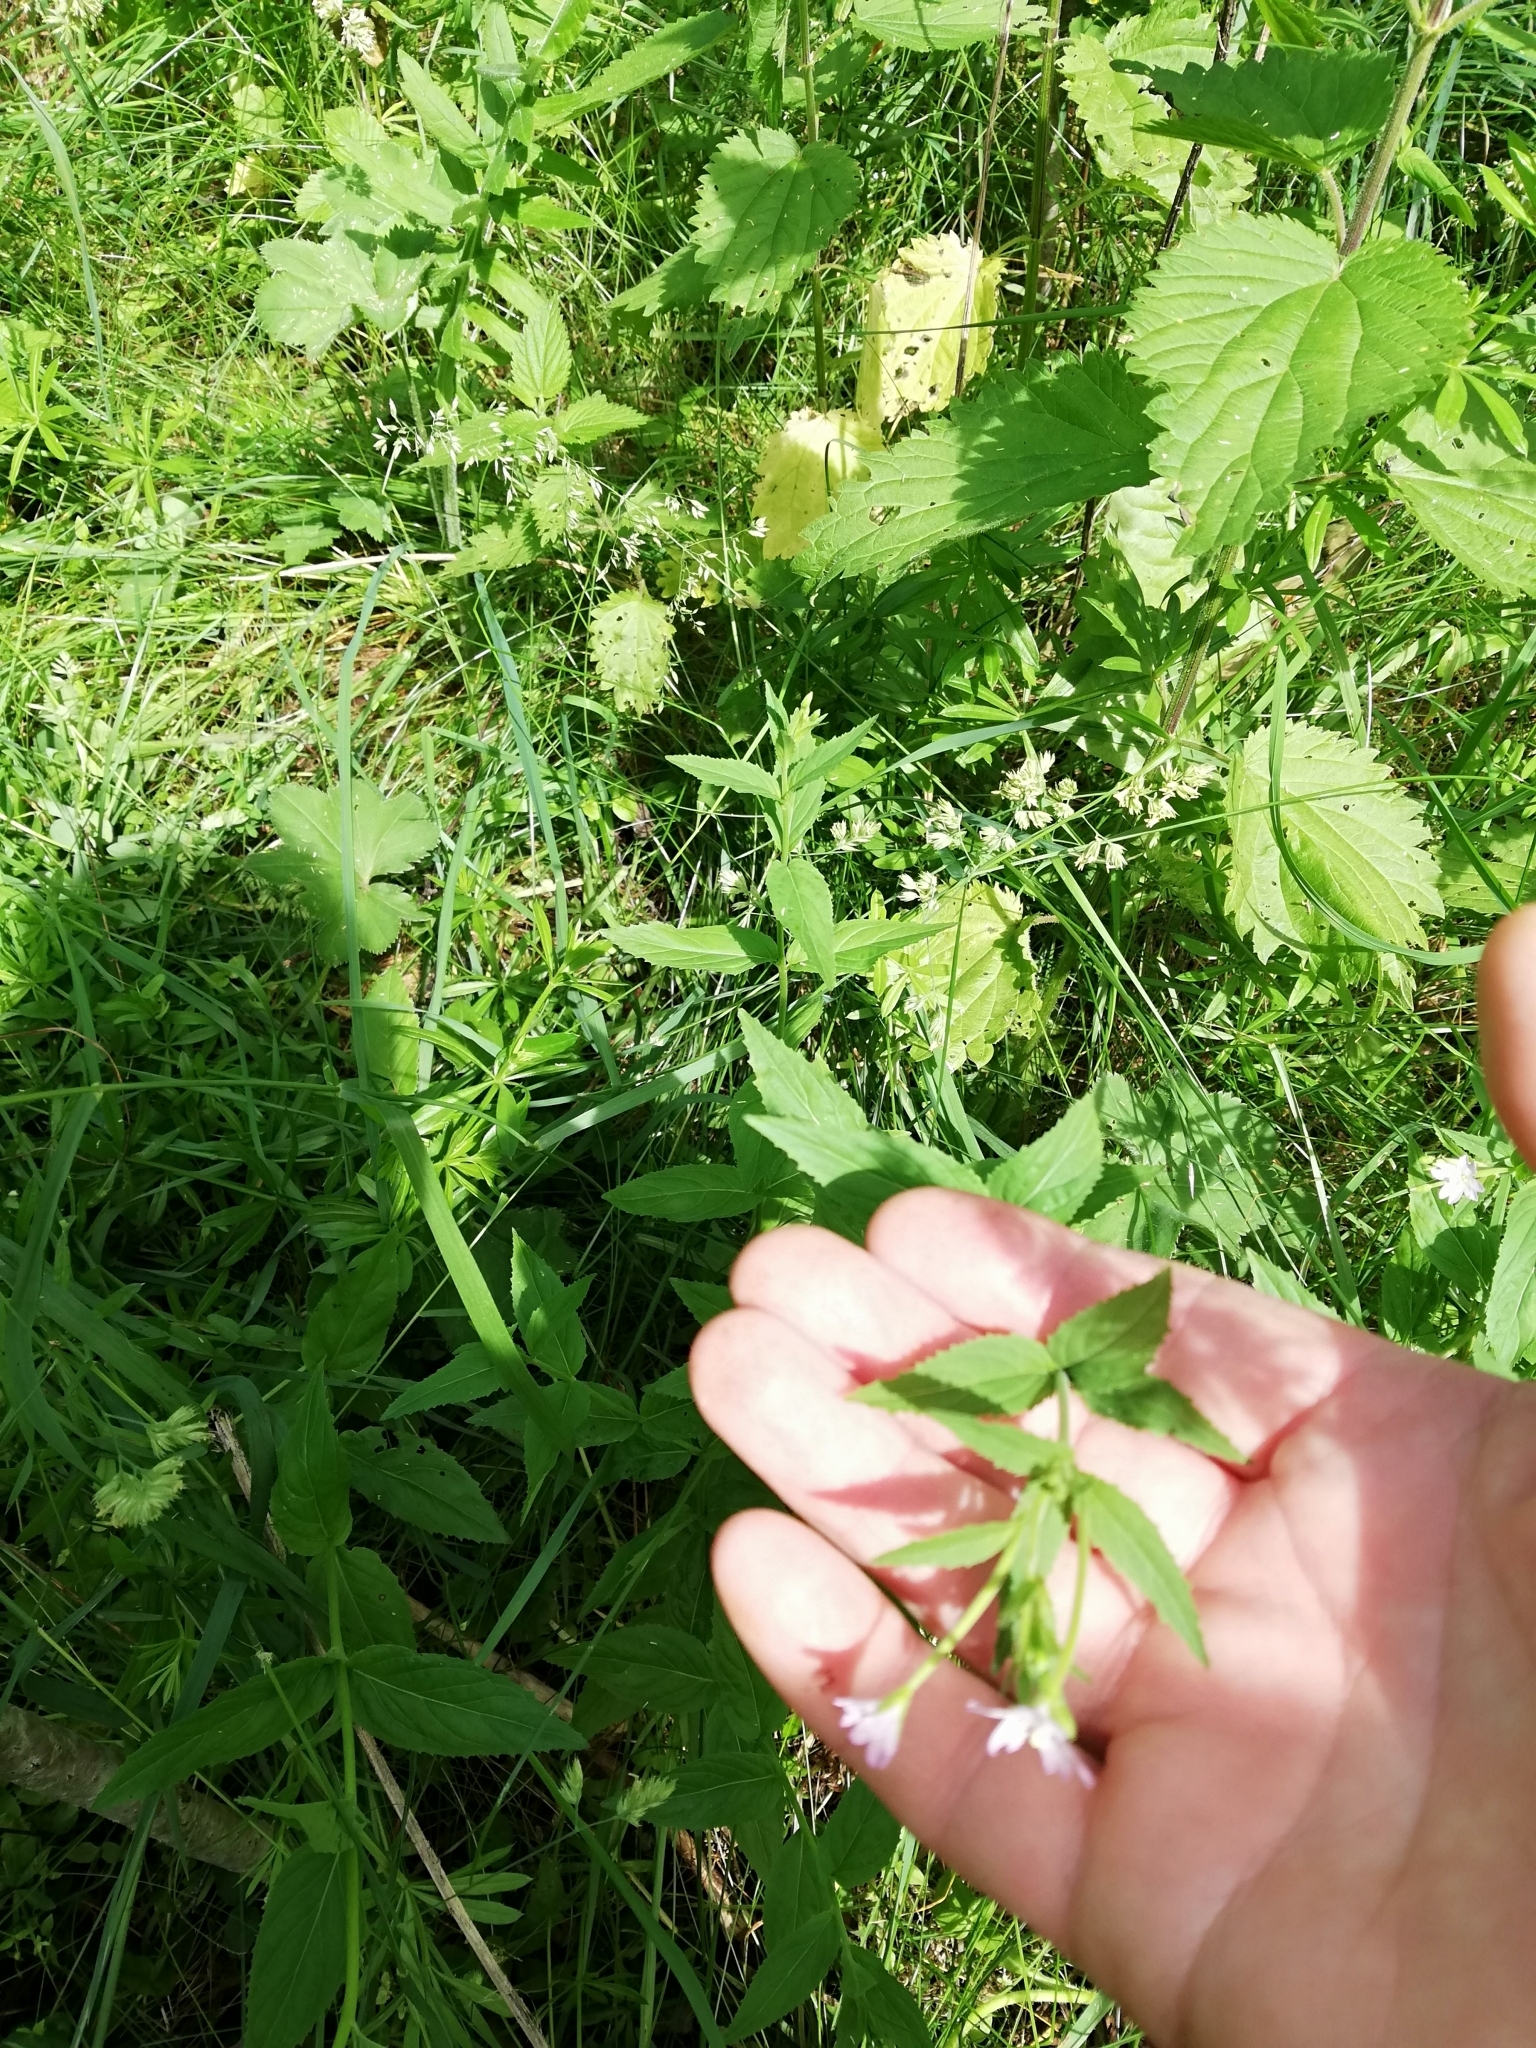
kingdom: Plantae
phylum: Tracheophyta
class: Magnoliopsida
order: Myrtales
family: Onagraceae
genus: Epilobium
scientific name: Epilobium montanum
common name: Broad-leaved willowherb
